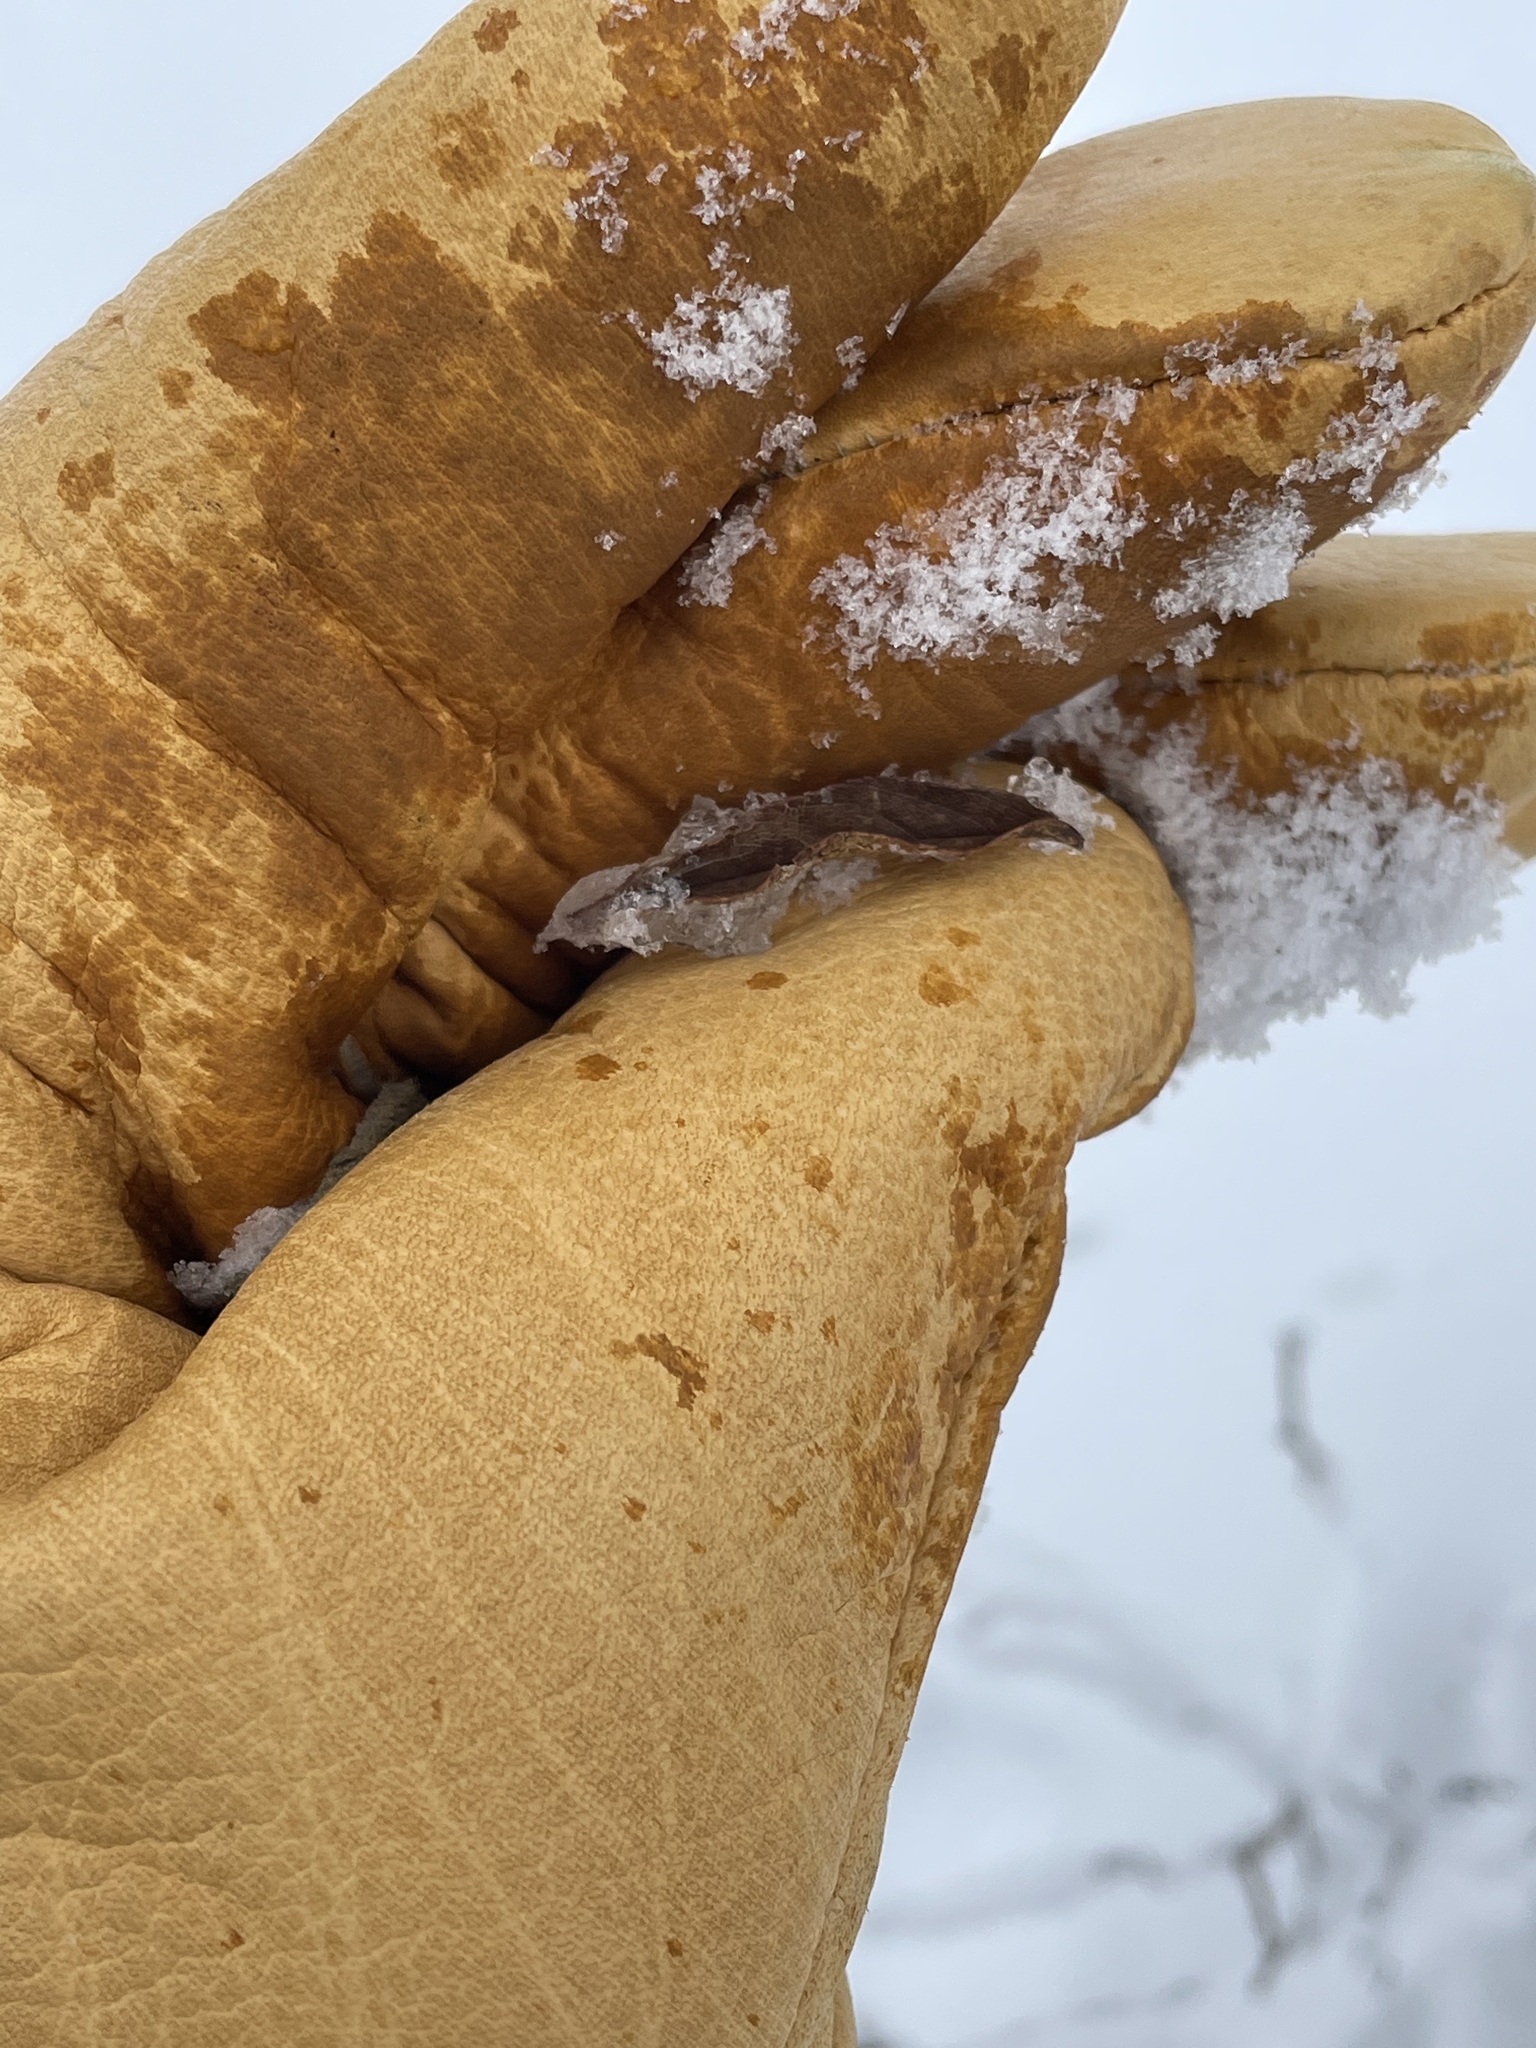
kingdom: Plantae
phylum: Tracheophyta
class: Magnoliopsida
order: Rosales
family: Rosaceae
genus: Rosa
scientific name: Rosa palustris
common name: Swamp rose
